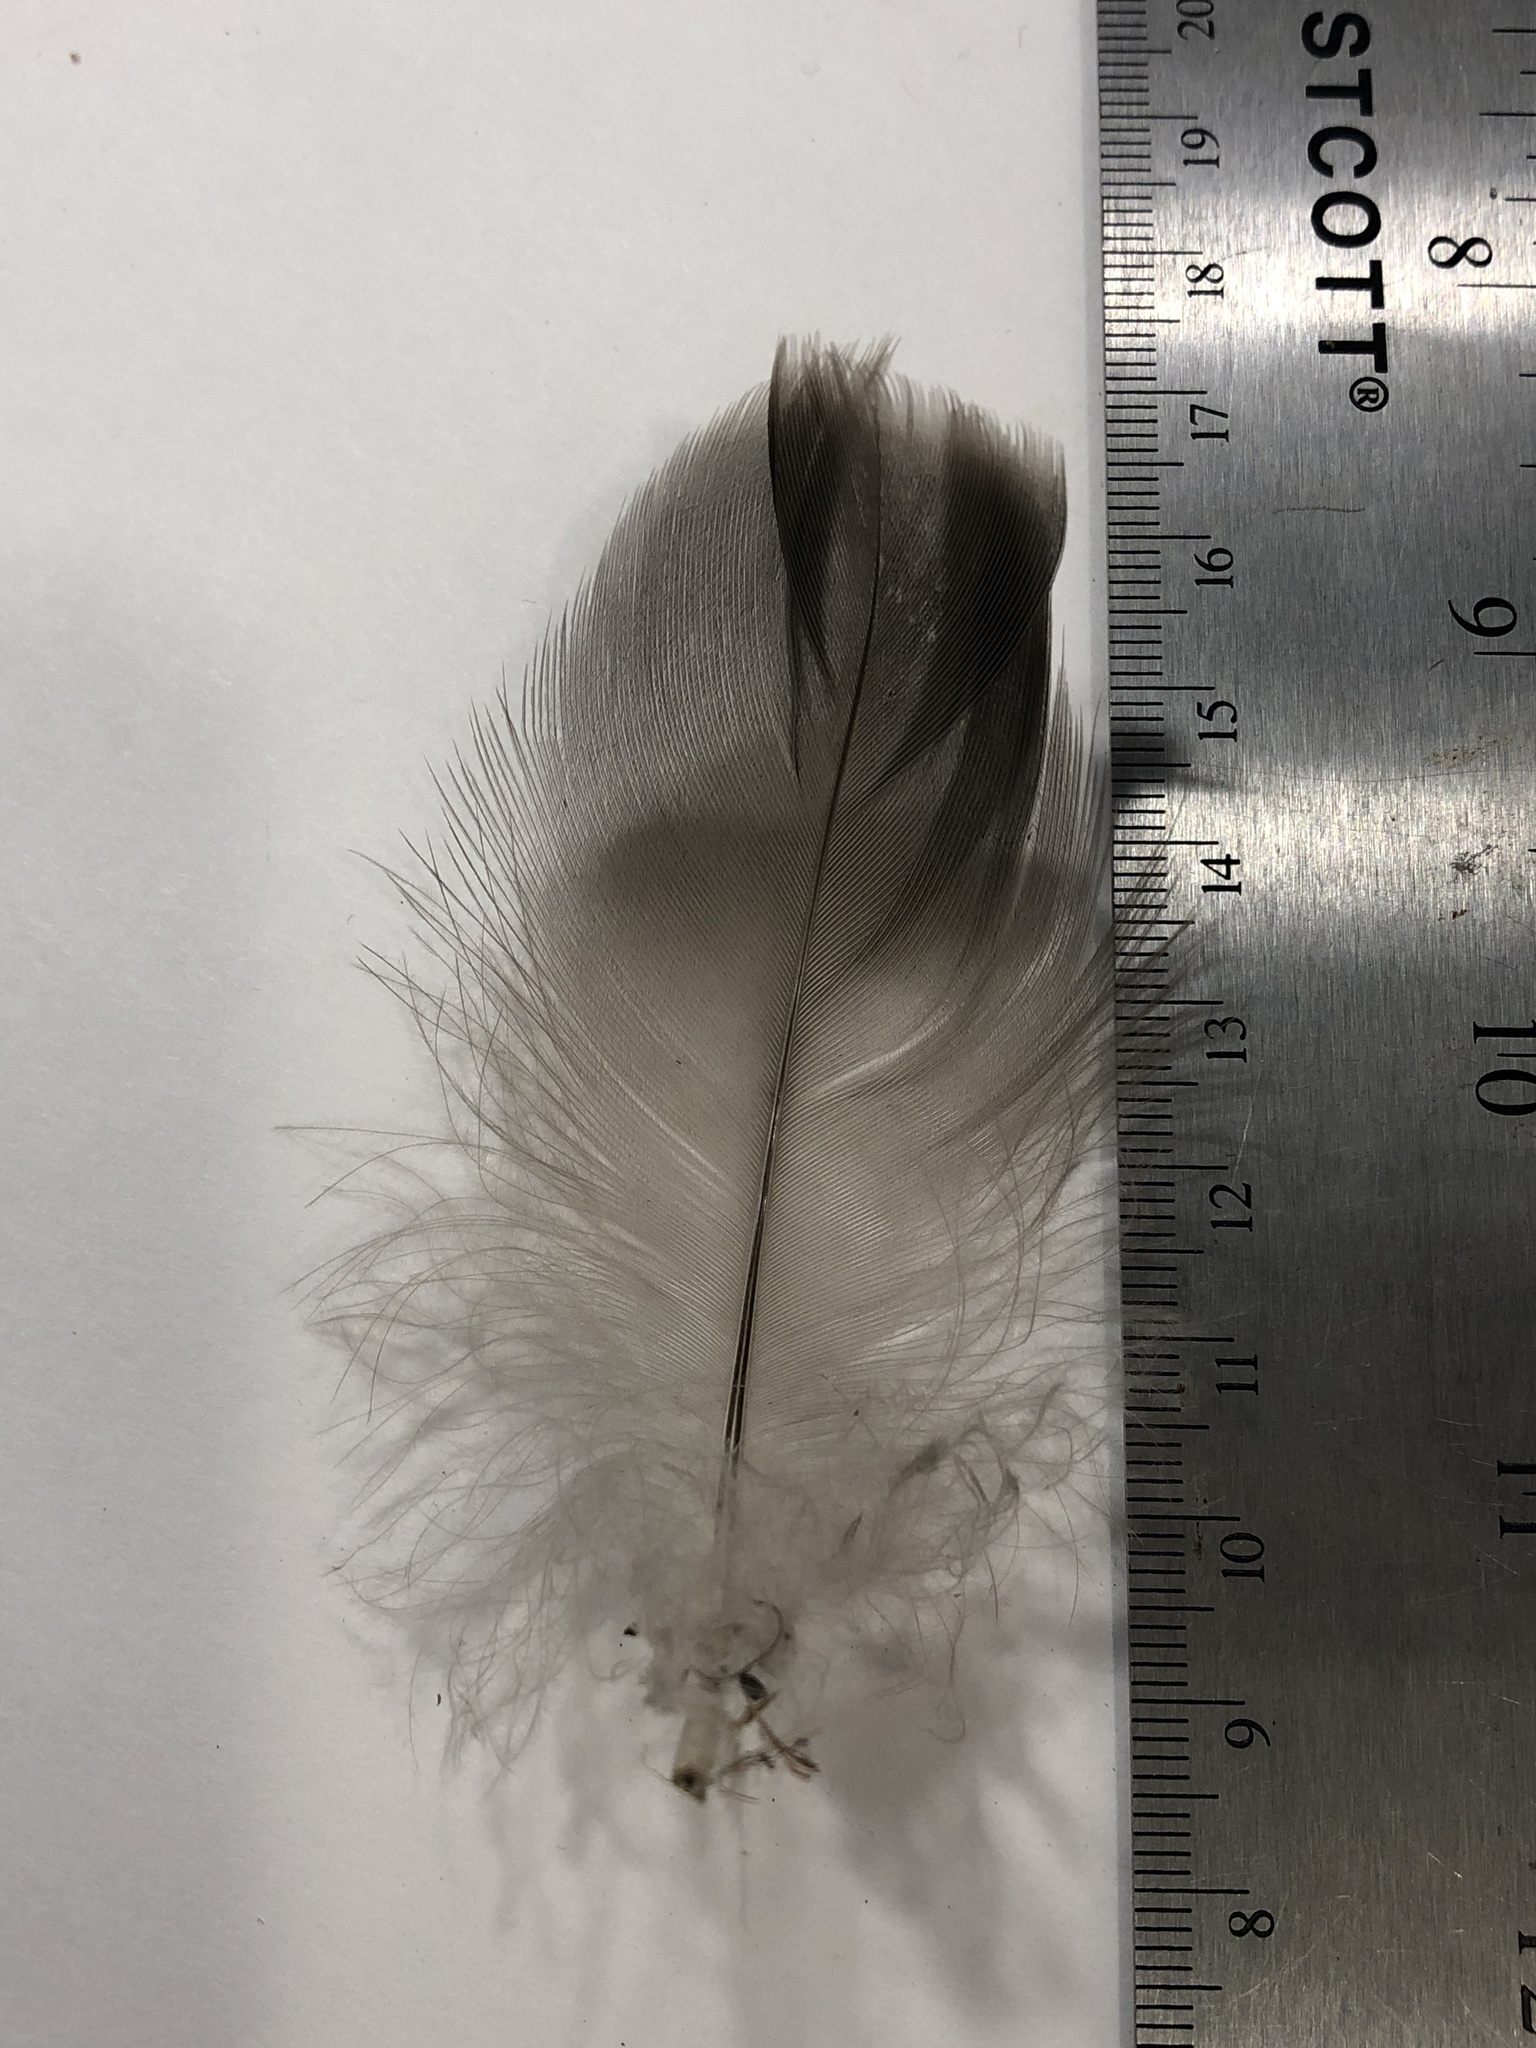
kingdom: Animalia
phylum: Chordata
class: Aves
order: Anseriformes
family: Anatidae
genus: Branta
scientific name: Branta canadensis
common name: Canada goose
